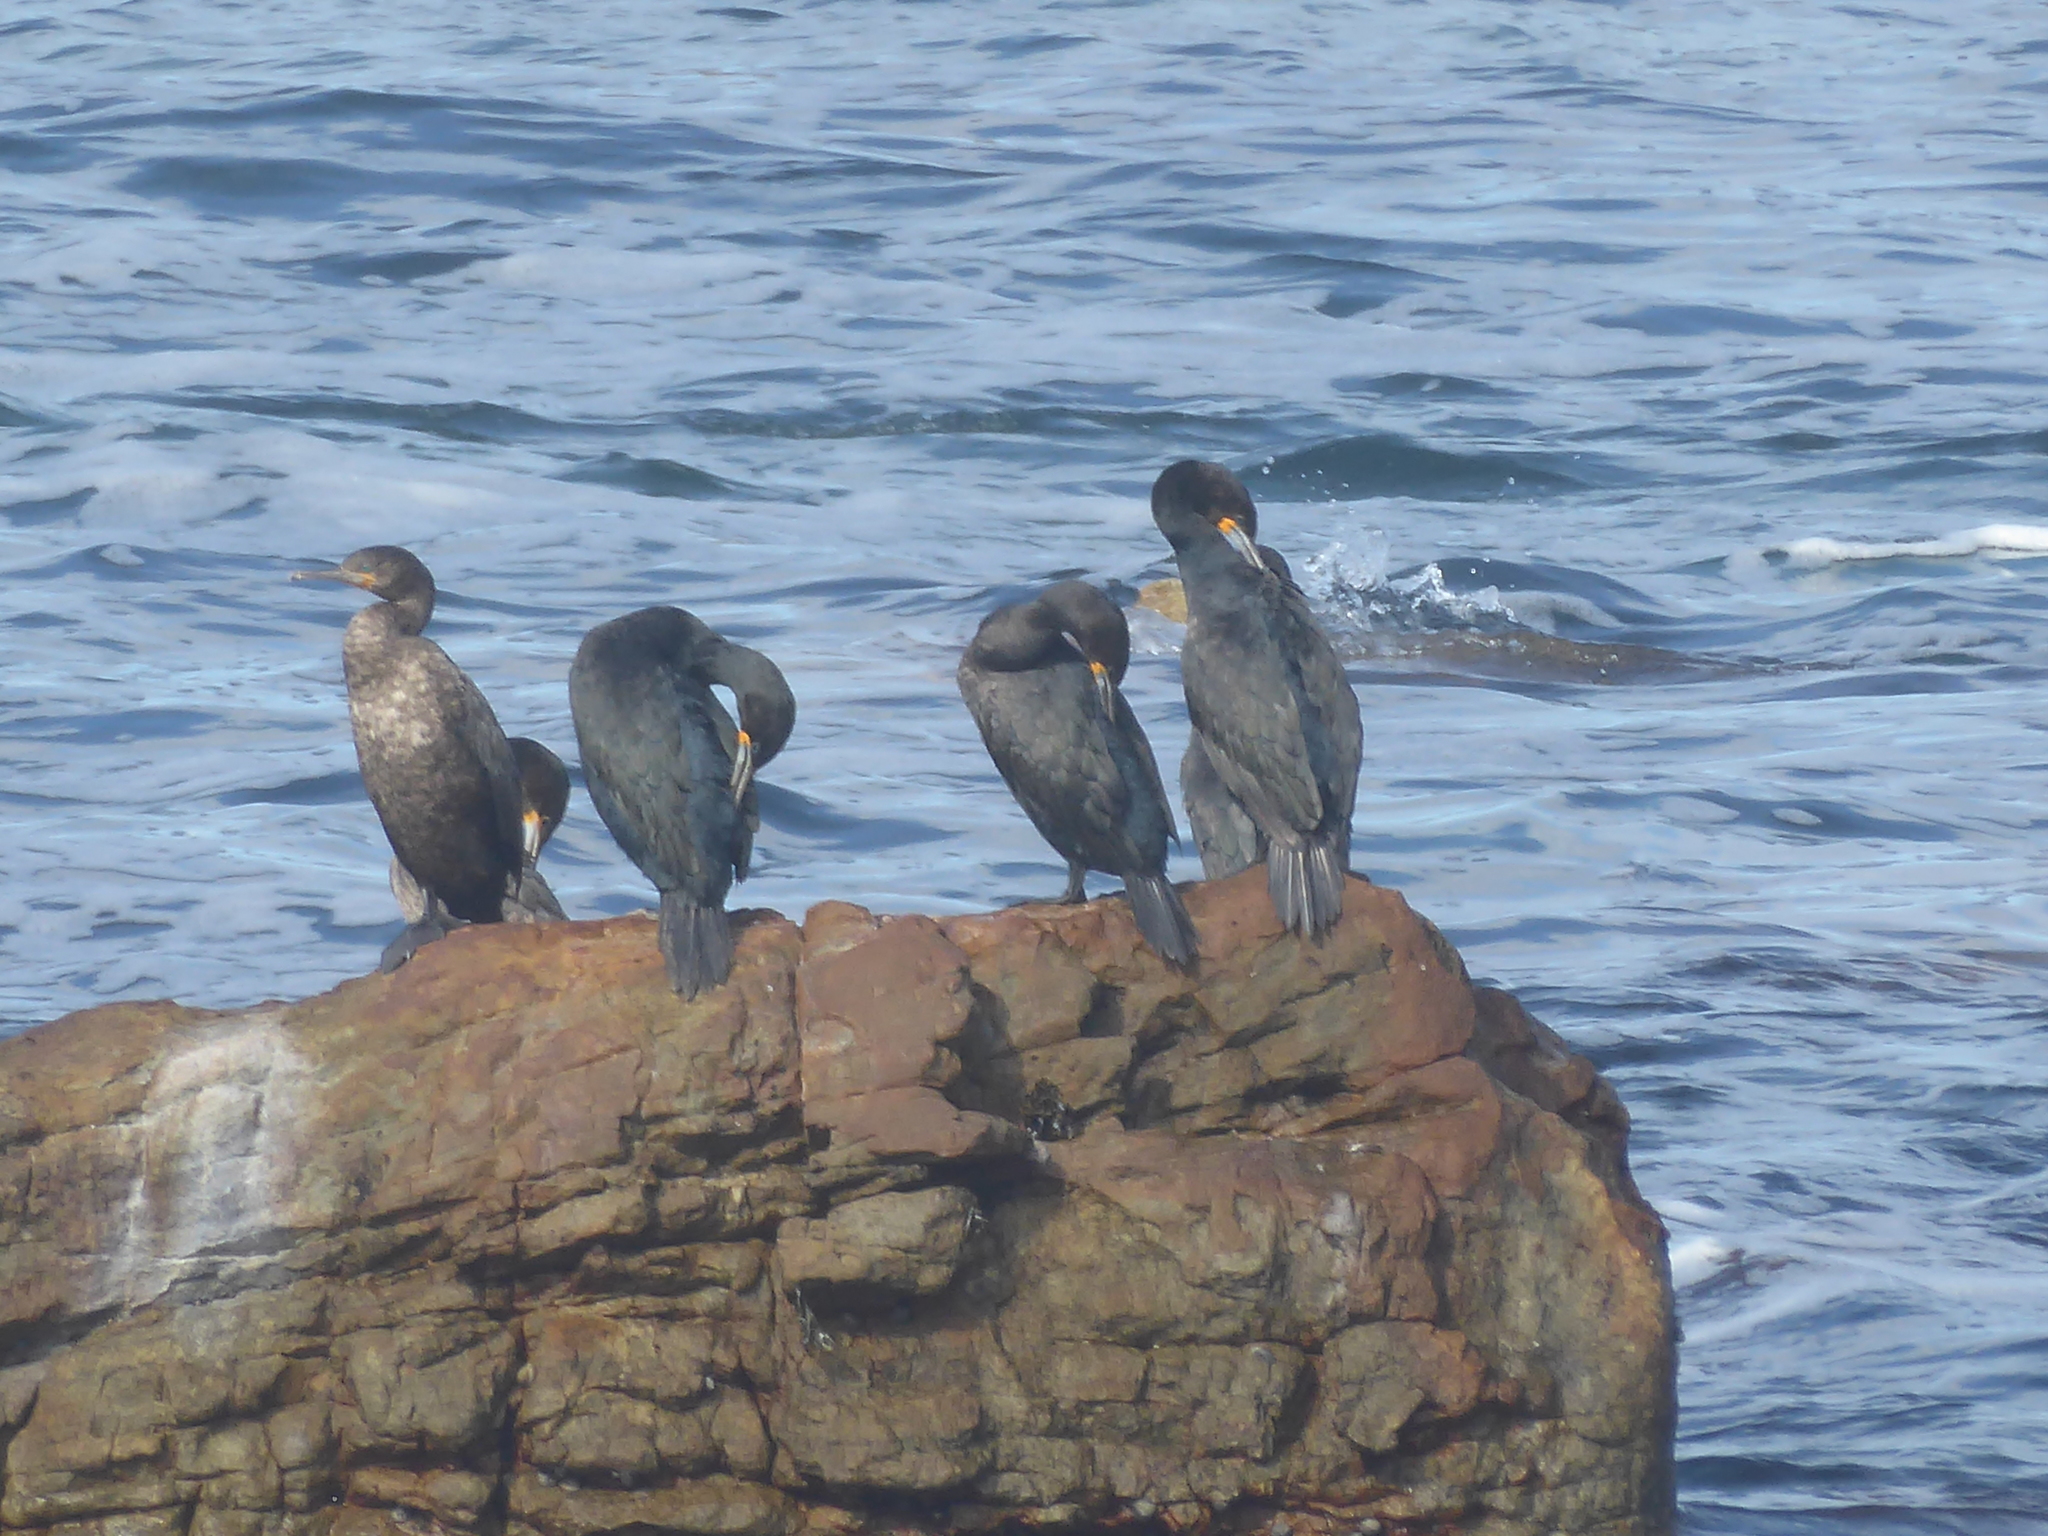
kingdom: Animalia
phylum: Chordata
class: Aves
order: Suliformes
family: Phalacrocoracidae
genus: Phalacrocorax
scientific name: Phalacrocorax capensis
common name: Cape cormorant
